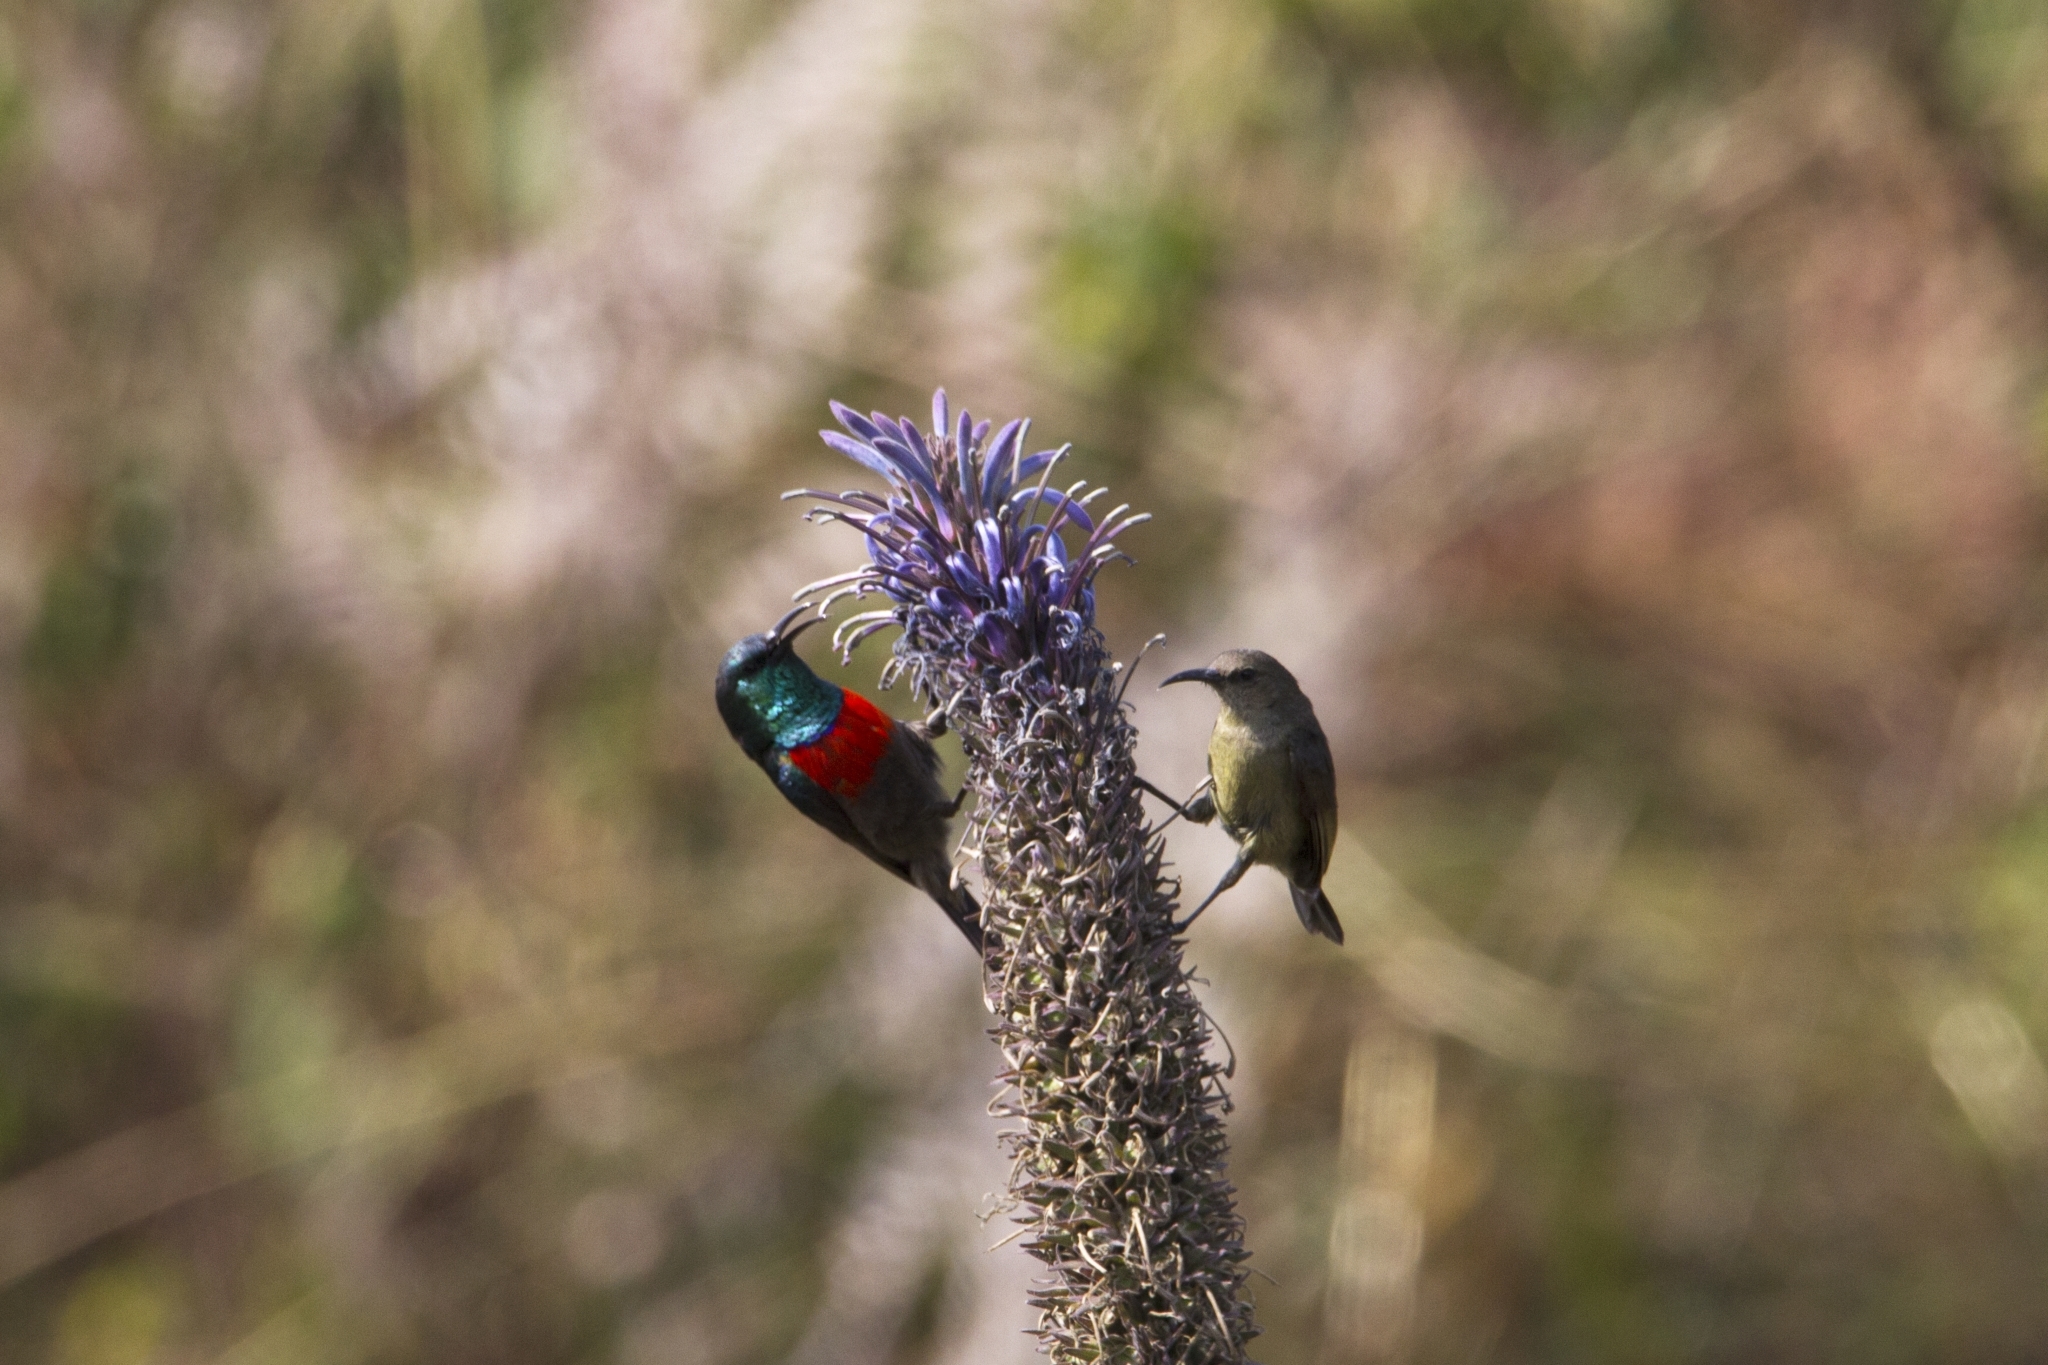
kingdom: Animalia
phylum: Chordata
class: Aves
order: Passeriformes
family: Nectariniidae
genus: Cinnyris
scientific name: Cinnyris reichenowi
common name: Northern double-collared sunbird
